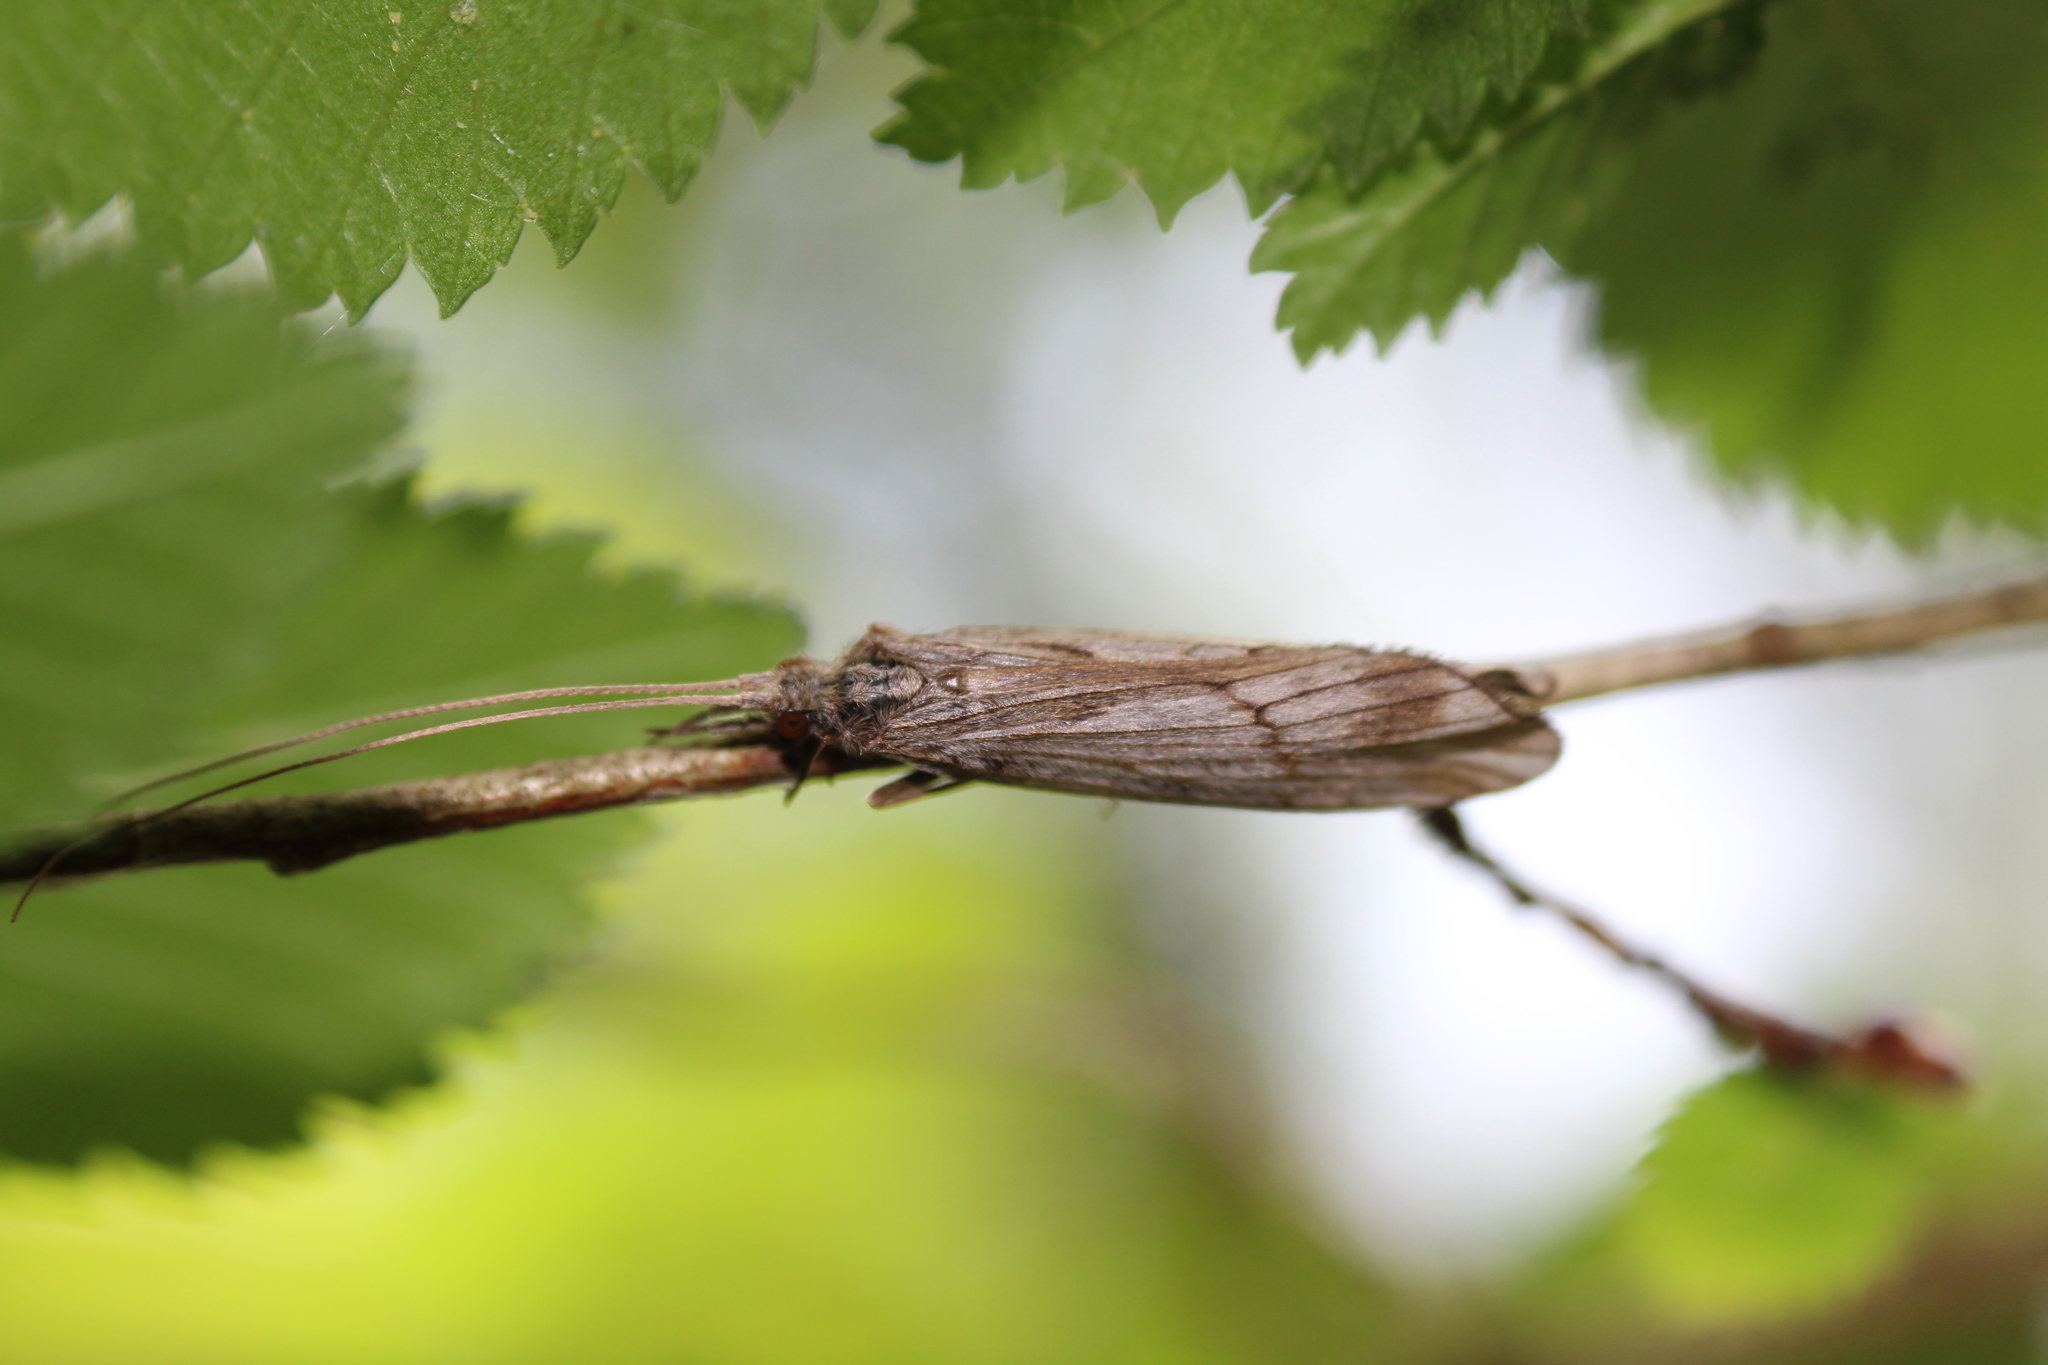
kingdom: Animalia
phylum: Arthropoda
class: Insecta
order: Trichoptera
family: Odontoceridae
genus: Odontocerum
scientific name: Odontocerum albicorne
